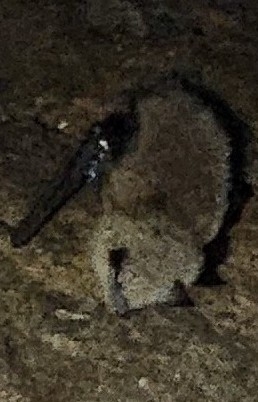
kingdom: Animalia
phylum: Chordata
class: Mammalia
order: Chiroptera
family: Vespertilionidae
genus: Myotis
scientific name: Myotis lucifugus
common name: Little brown bat
